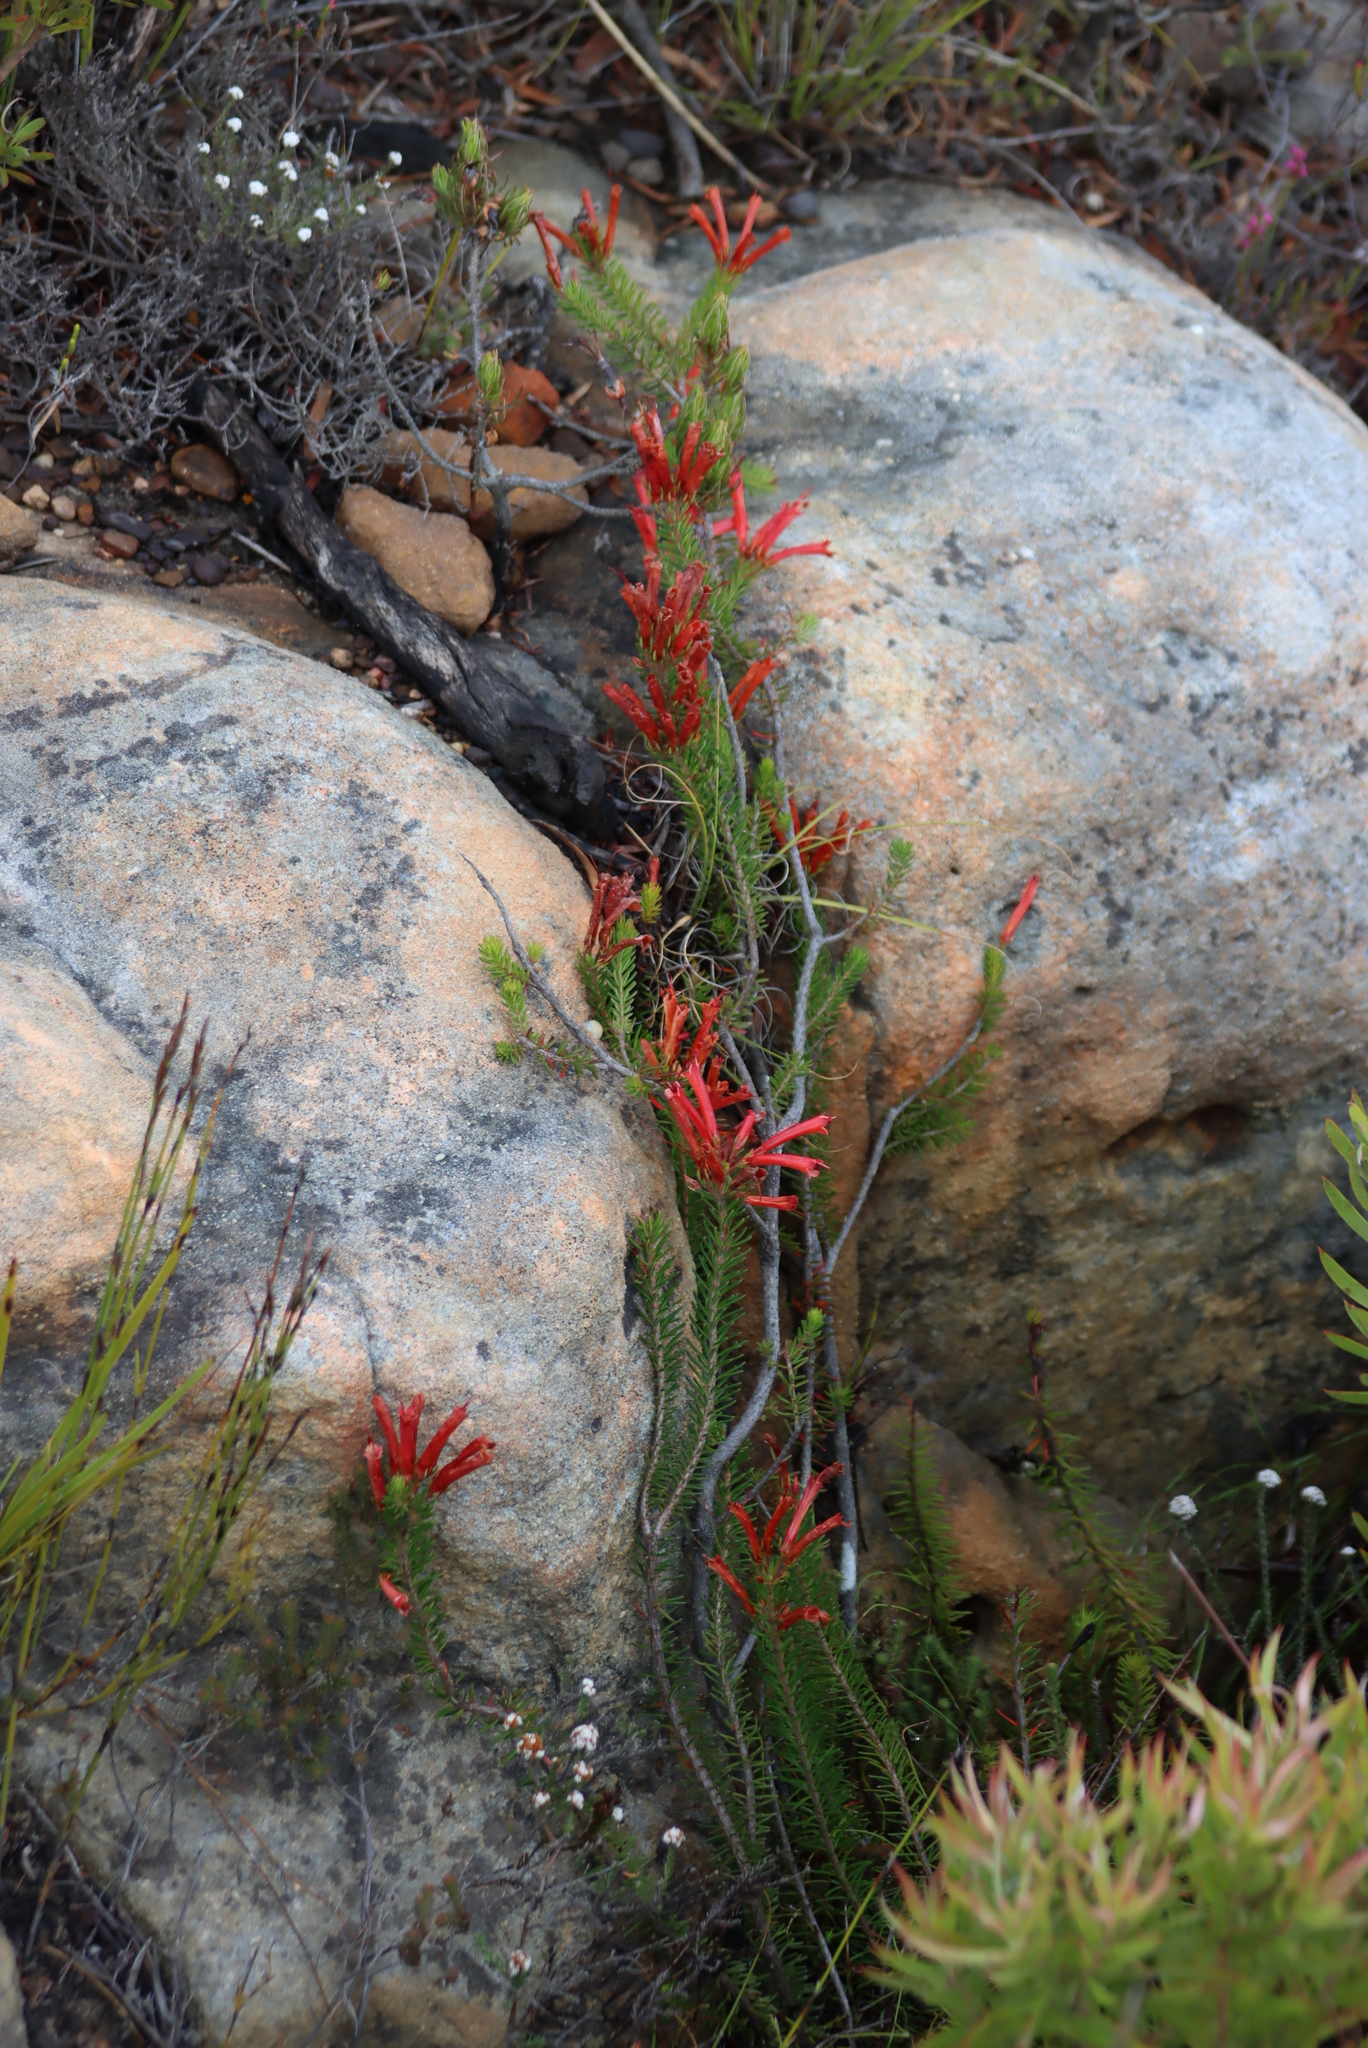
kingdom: Plantae
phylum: Tracheophyta
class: Magnoliopsida
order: Ericales
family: Ericaceae
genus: Erica
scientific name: Erica nevillei
